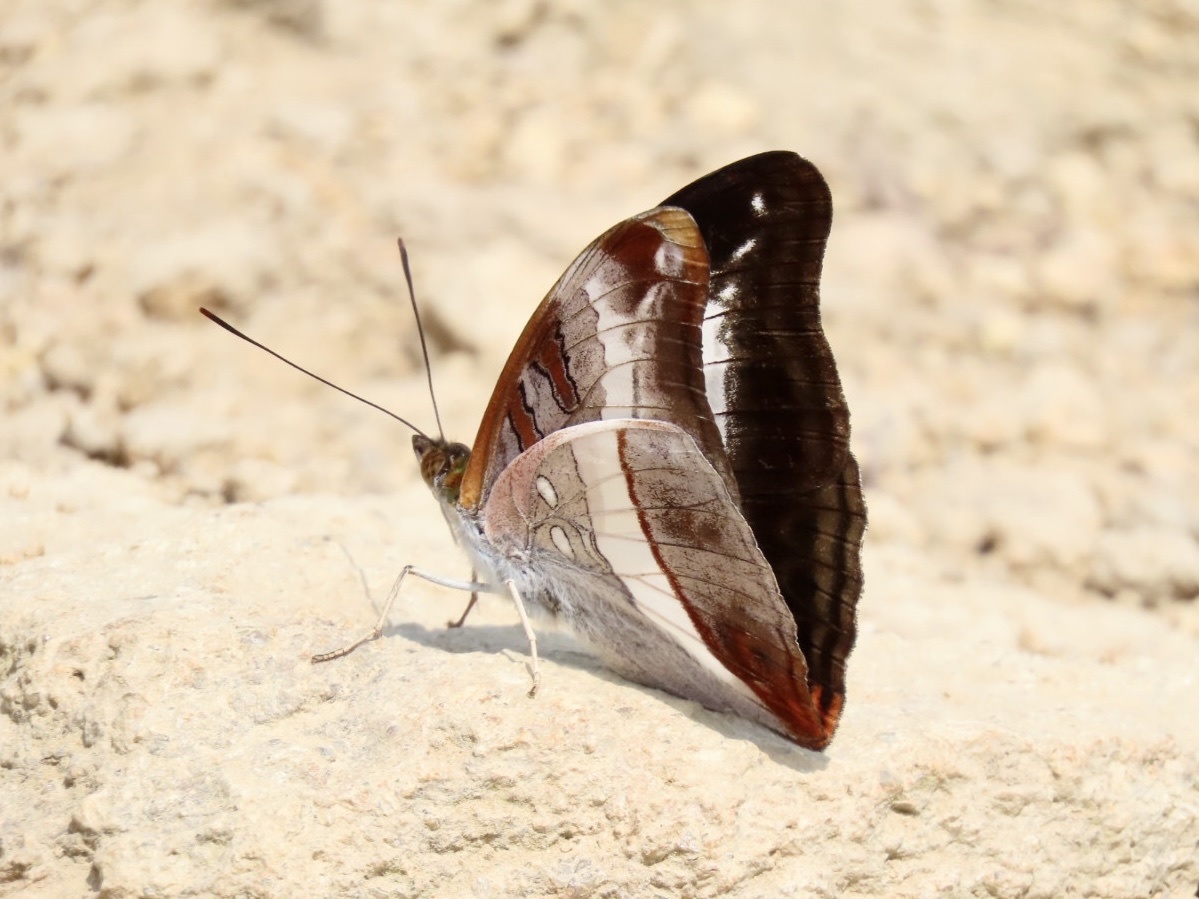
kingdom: Animalia
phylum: Arthropoda
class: Insecta
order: Lepidoptera
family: Nymphalidae
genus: Limenitis
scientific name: Limenitis Parasarpa dudu
